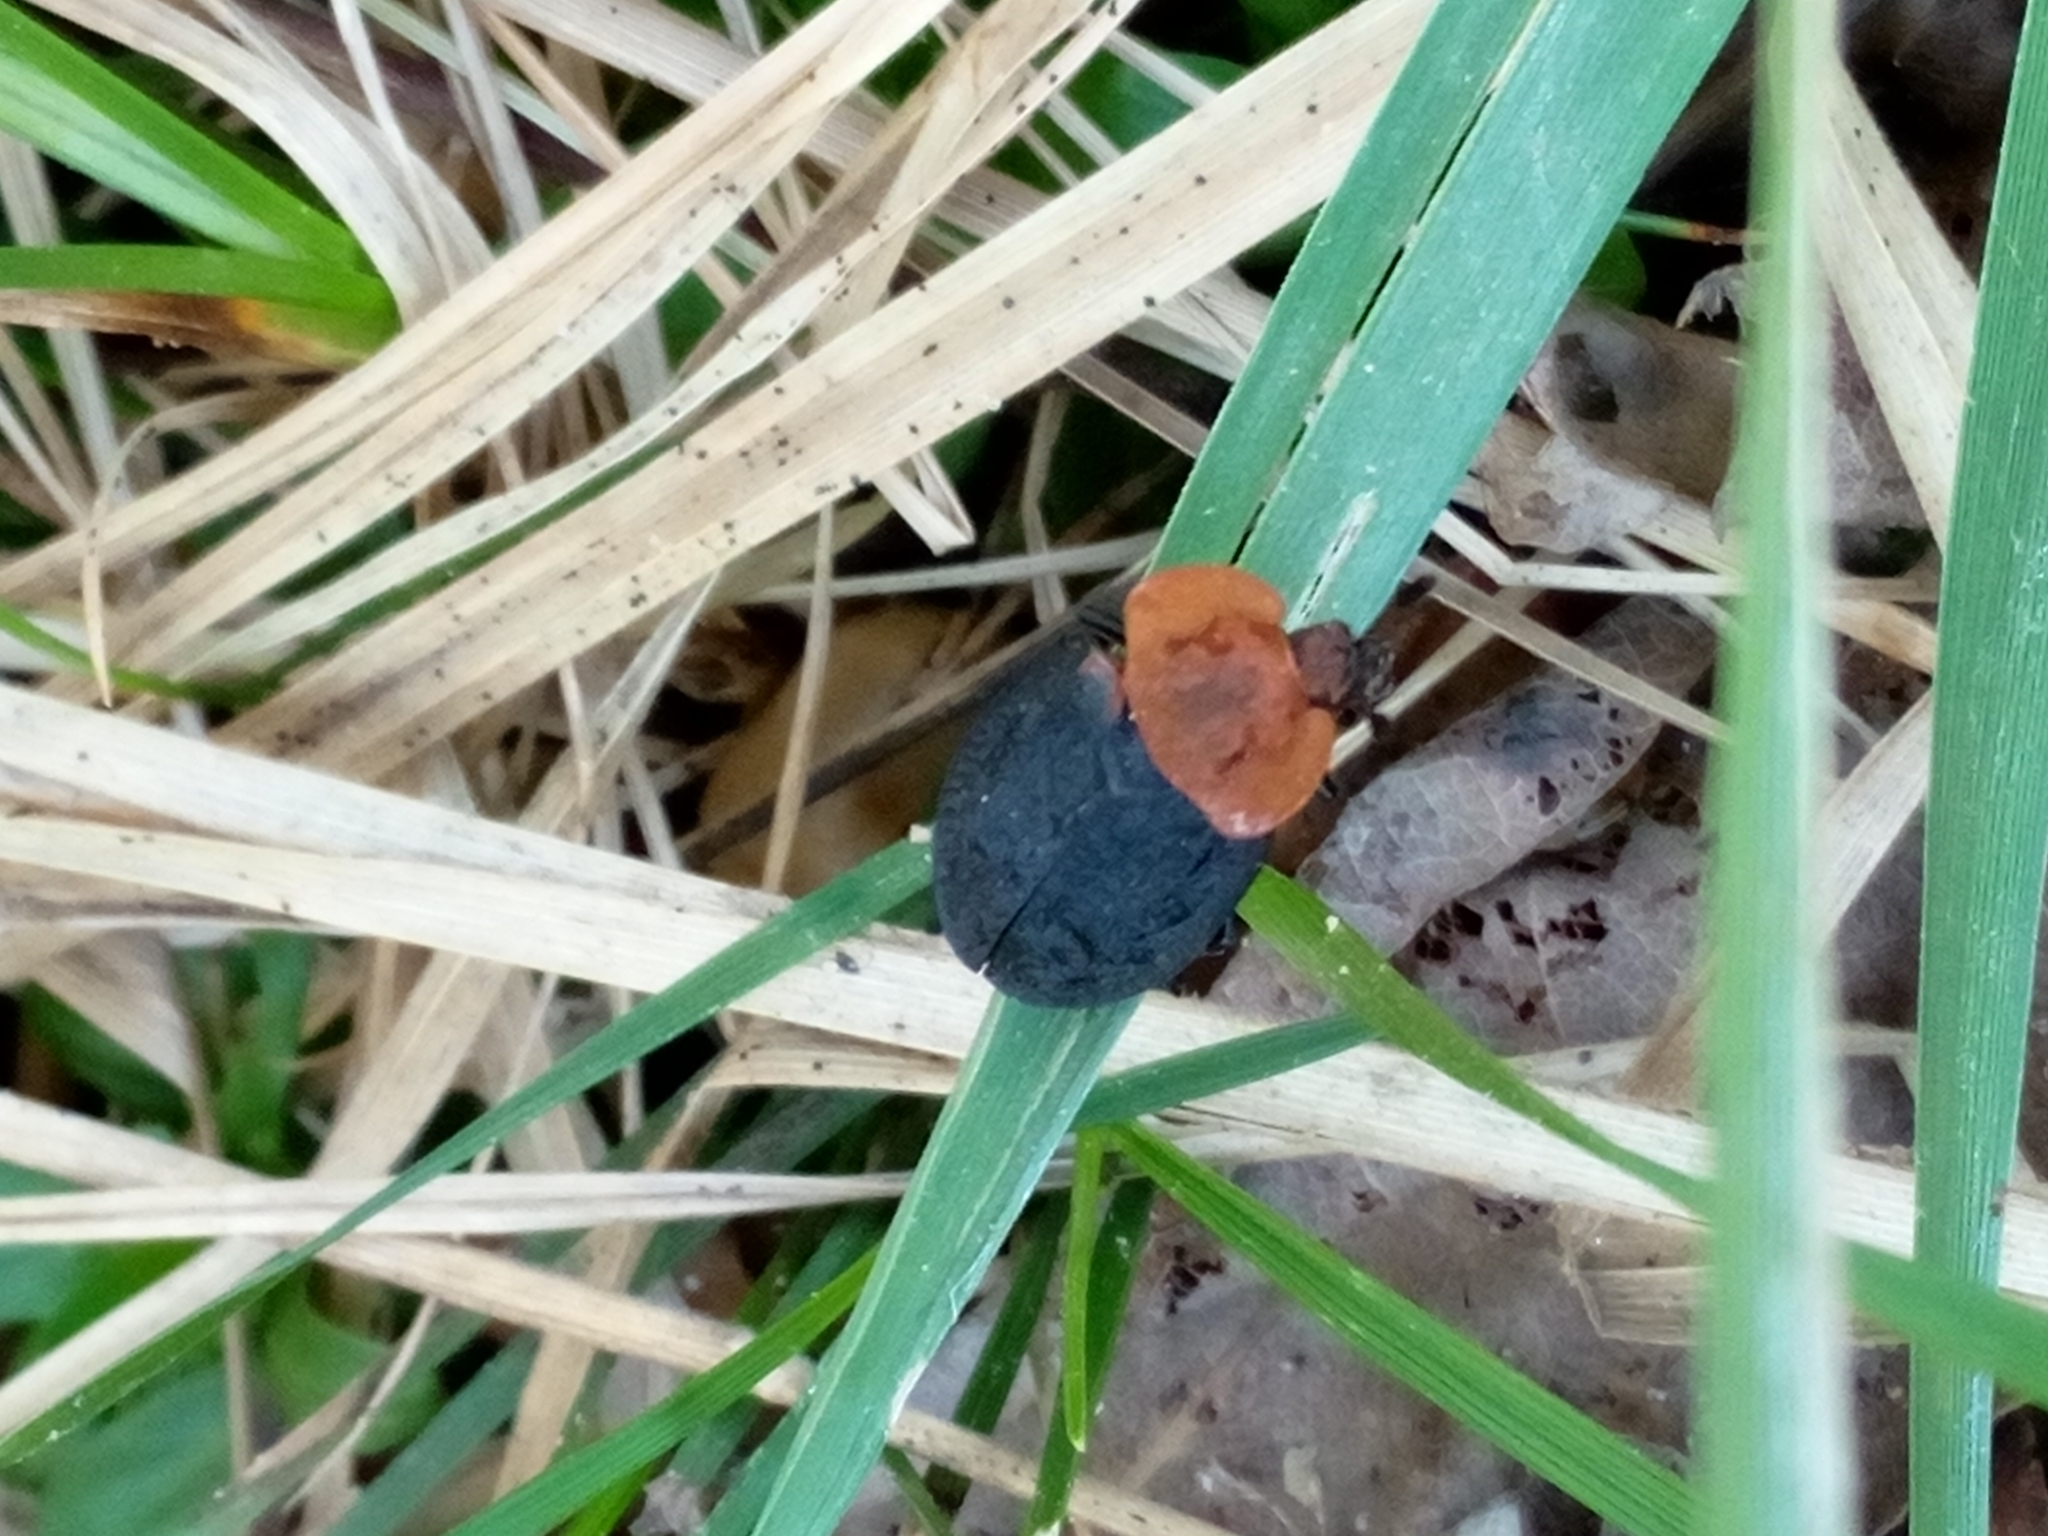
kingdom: Animalia
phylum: Arthropoda
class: Insecta
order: Coleoptera
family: Staphylinidae
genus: Oiceoptoma
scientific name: Oiceoptoma thoracicum
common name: Red-breasted carrion beetle
